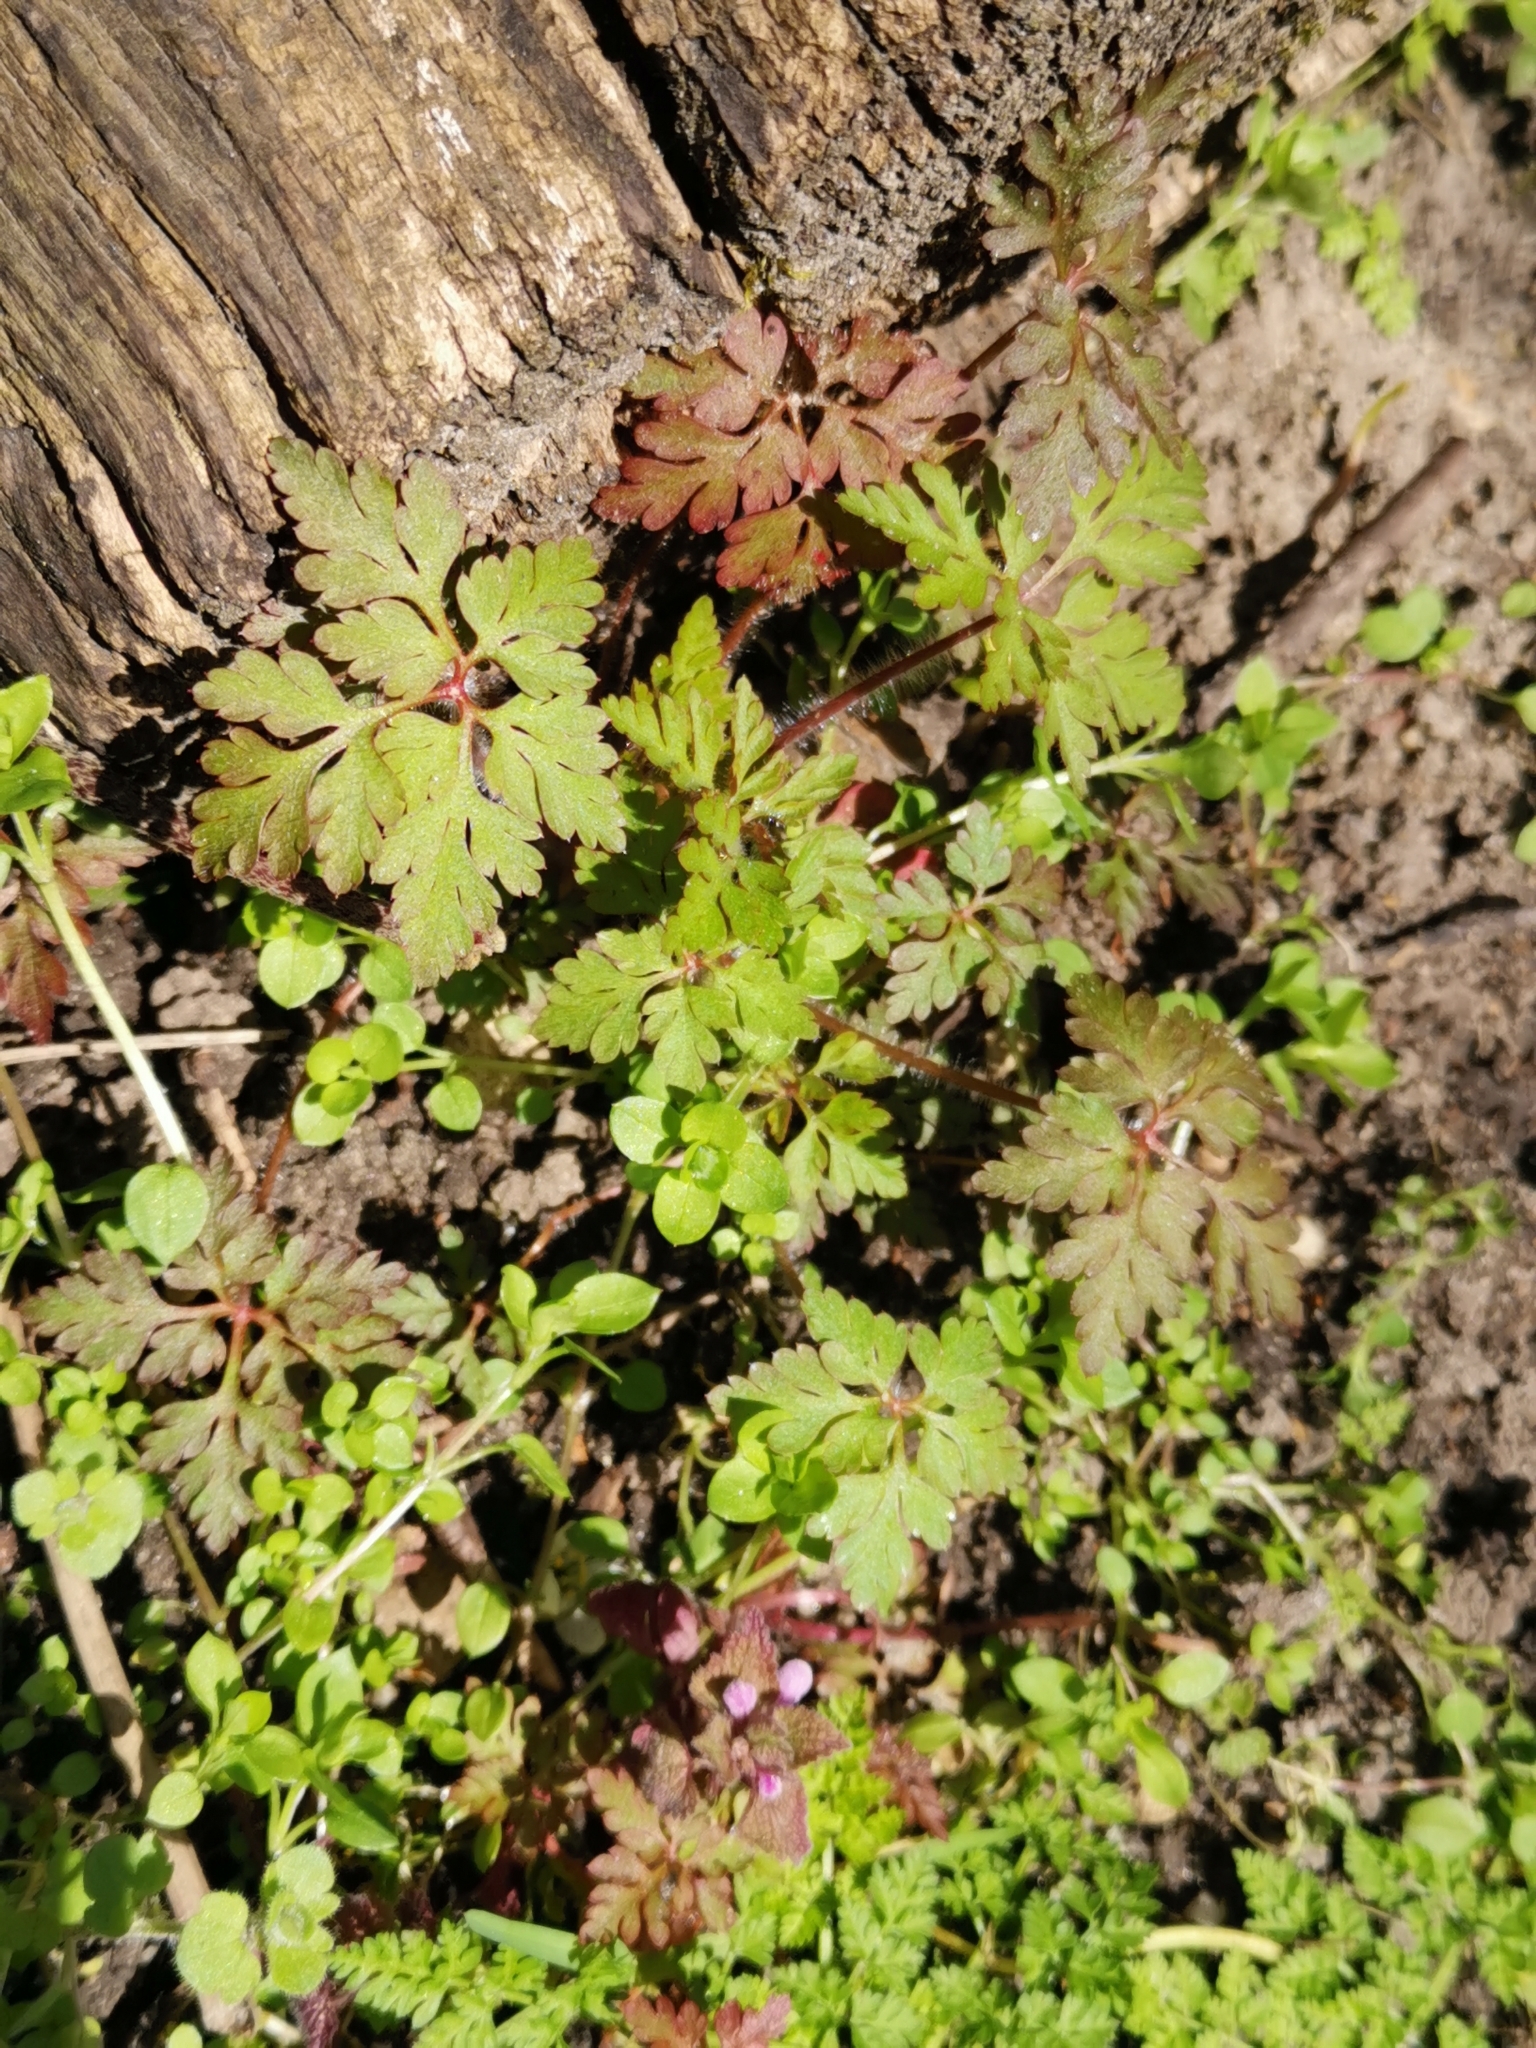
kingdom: Plantae
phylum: Tracheophyta
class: Magnoliopsida
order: Geraniales
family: Geraniaceae
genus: Geranium
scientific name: Geranium robertianum
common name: Herb-robert
